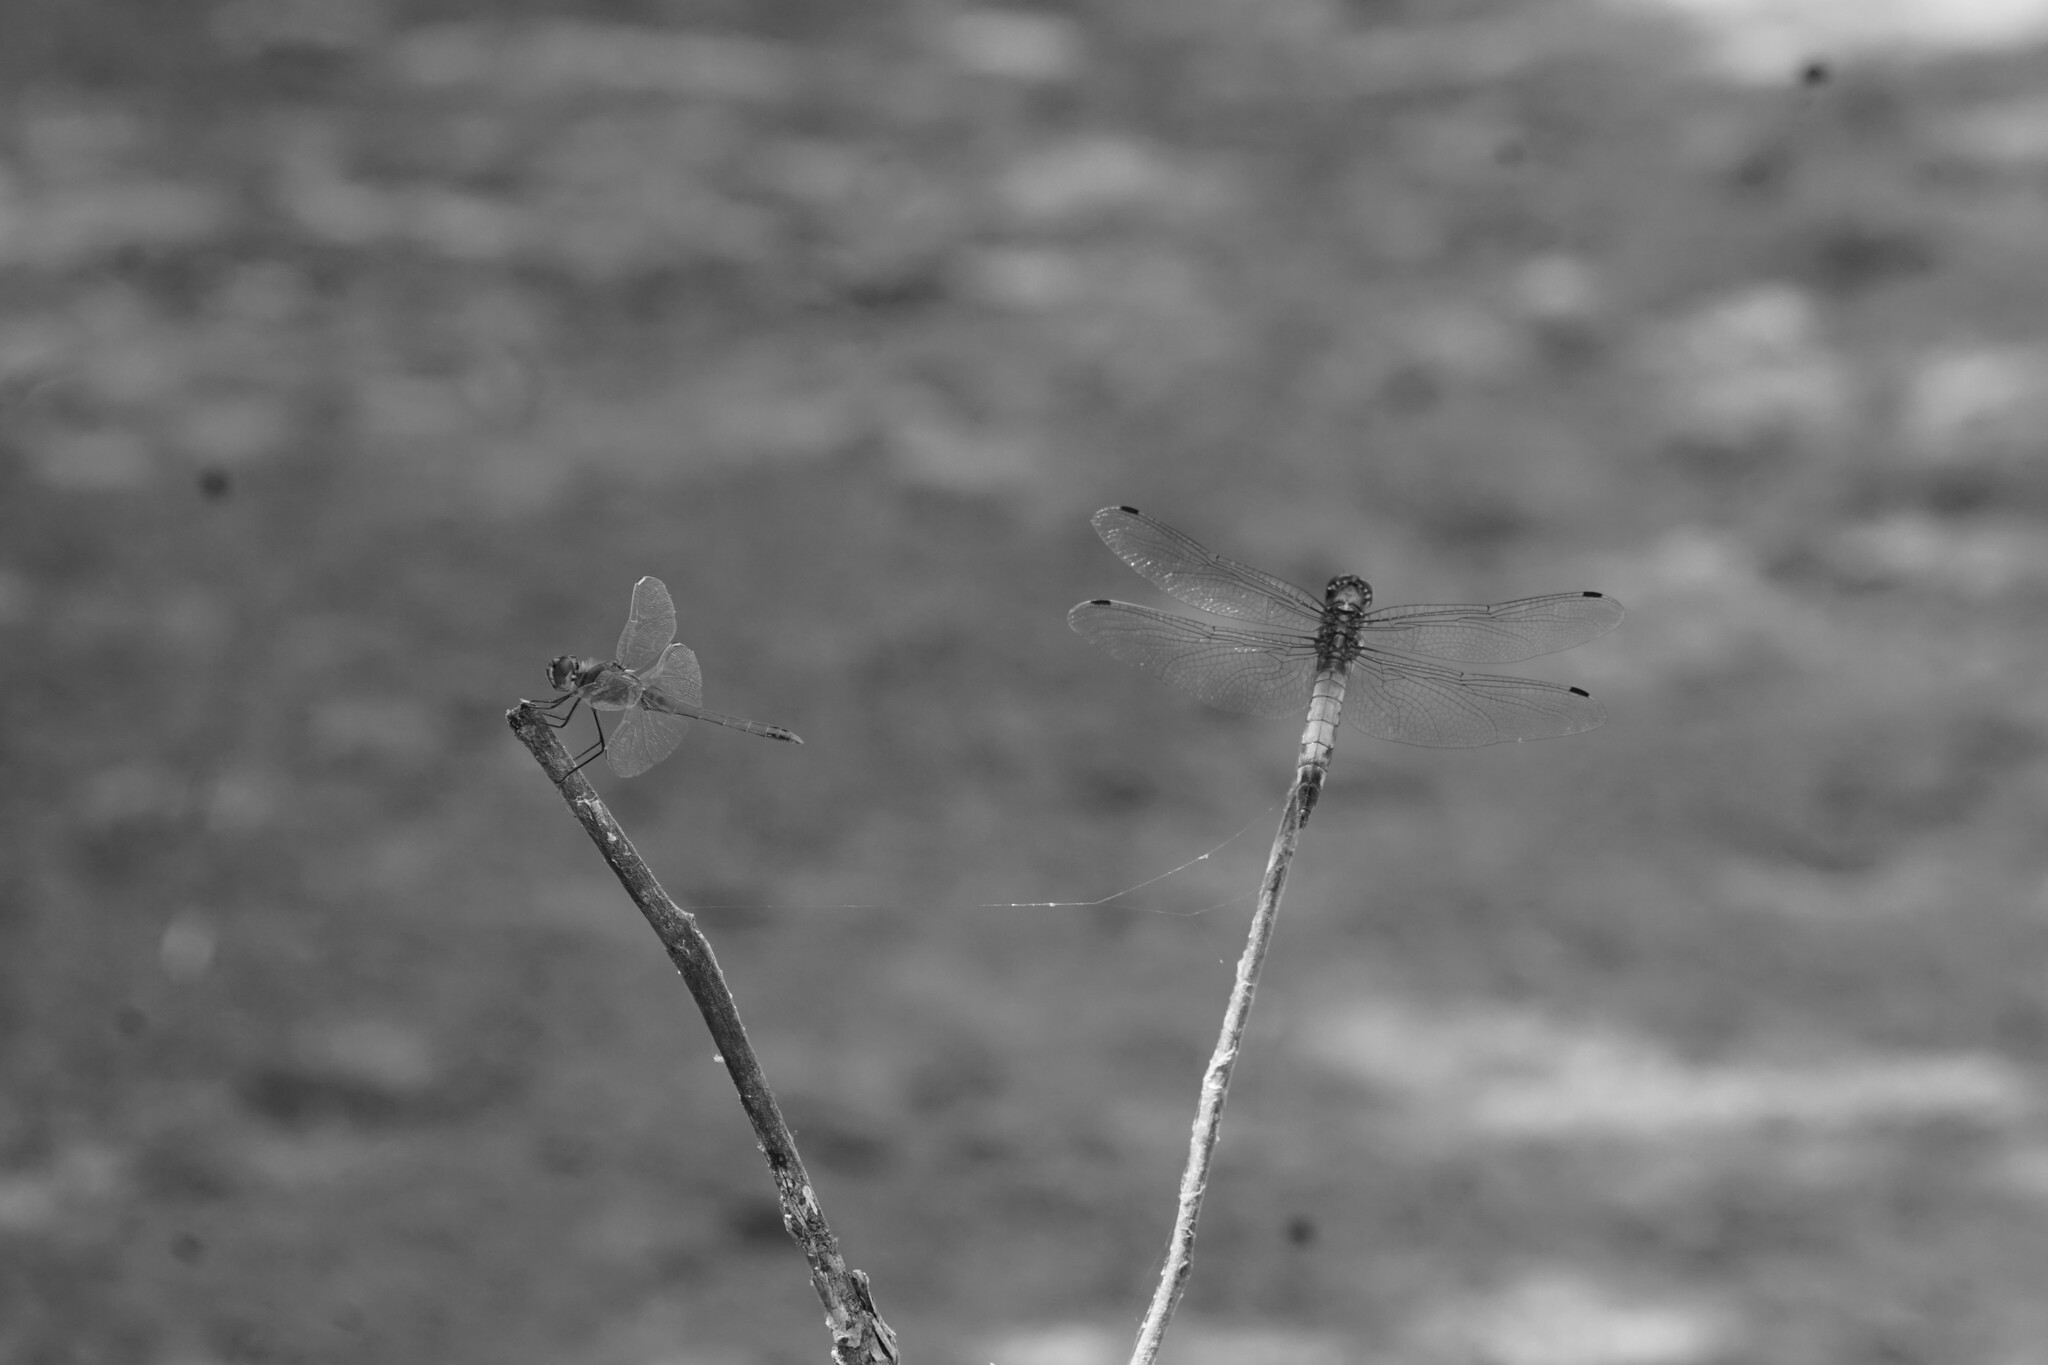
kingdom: Animalia
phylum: Arthropoda
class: Insecta
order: Odonata
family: Libellulidae
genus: Orthetrum
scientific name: Orthetrum cancellatum
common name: Black-tailed skimmer
